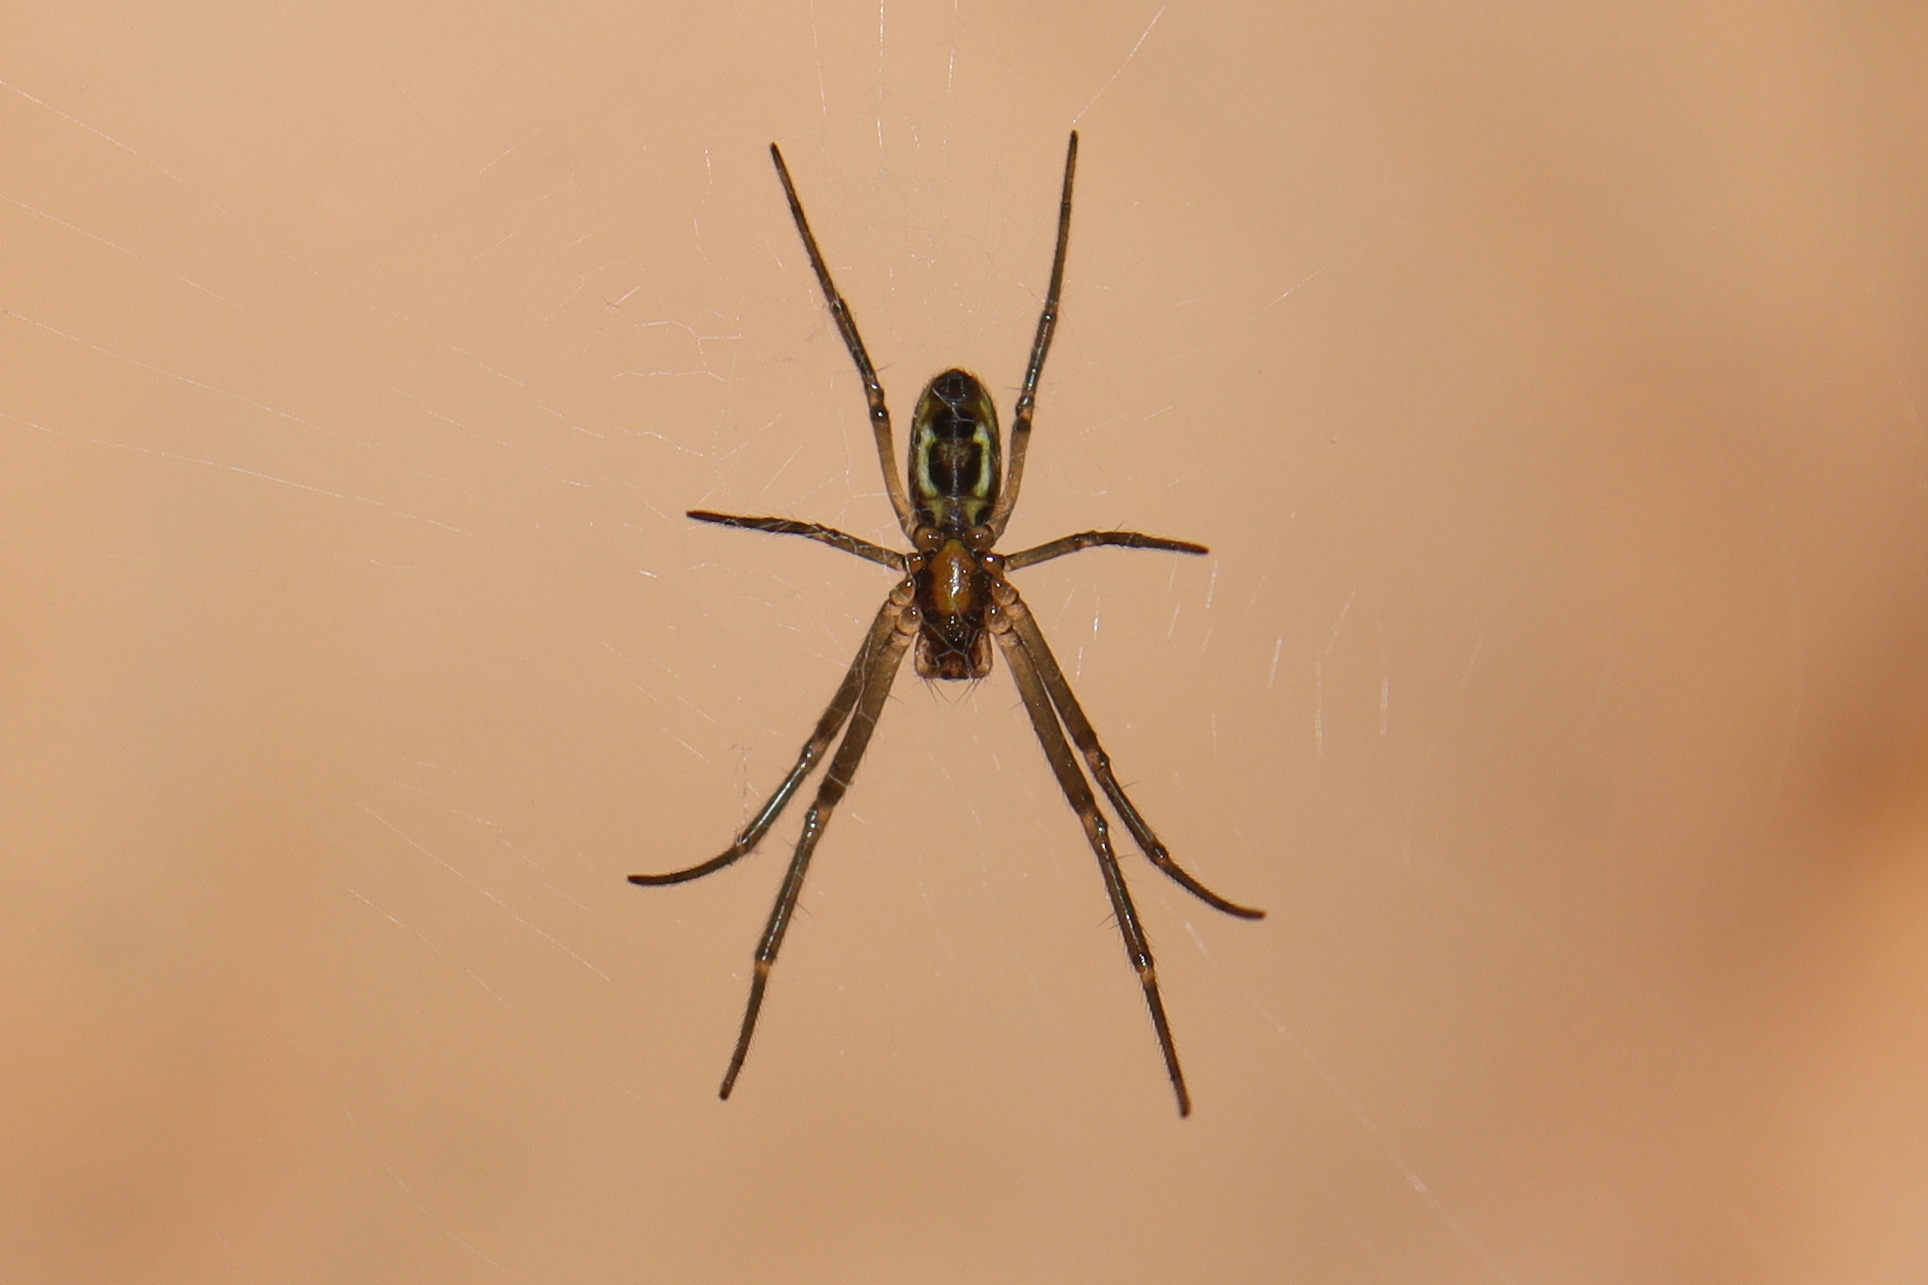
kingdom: Animalia
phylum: Arthropoda
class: Arachnida
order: Araneae
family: Araneidae
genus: Trichonephila
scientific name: Trichonephila clavipes
